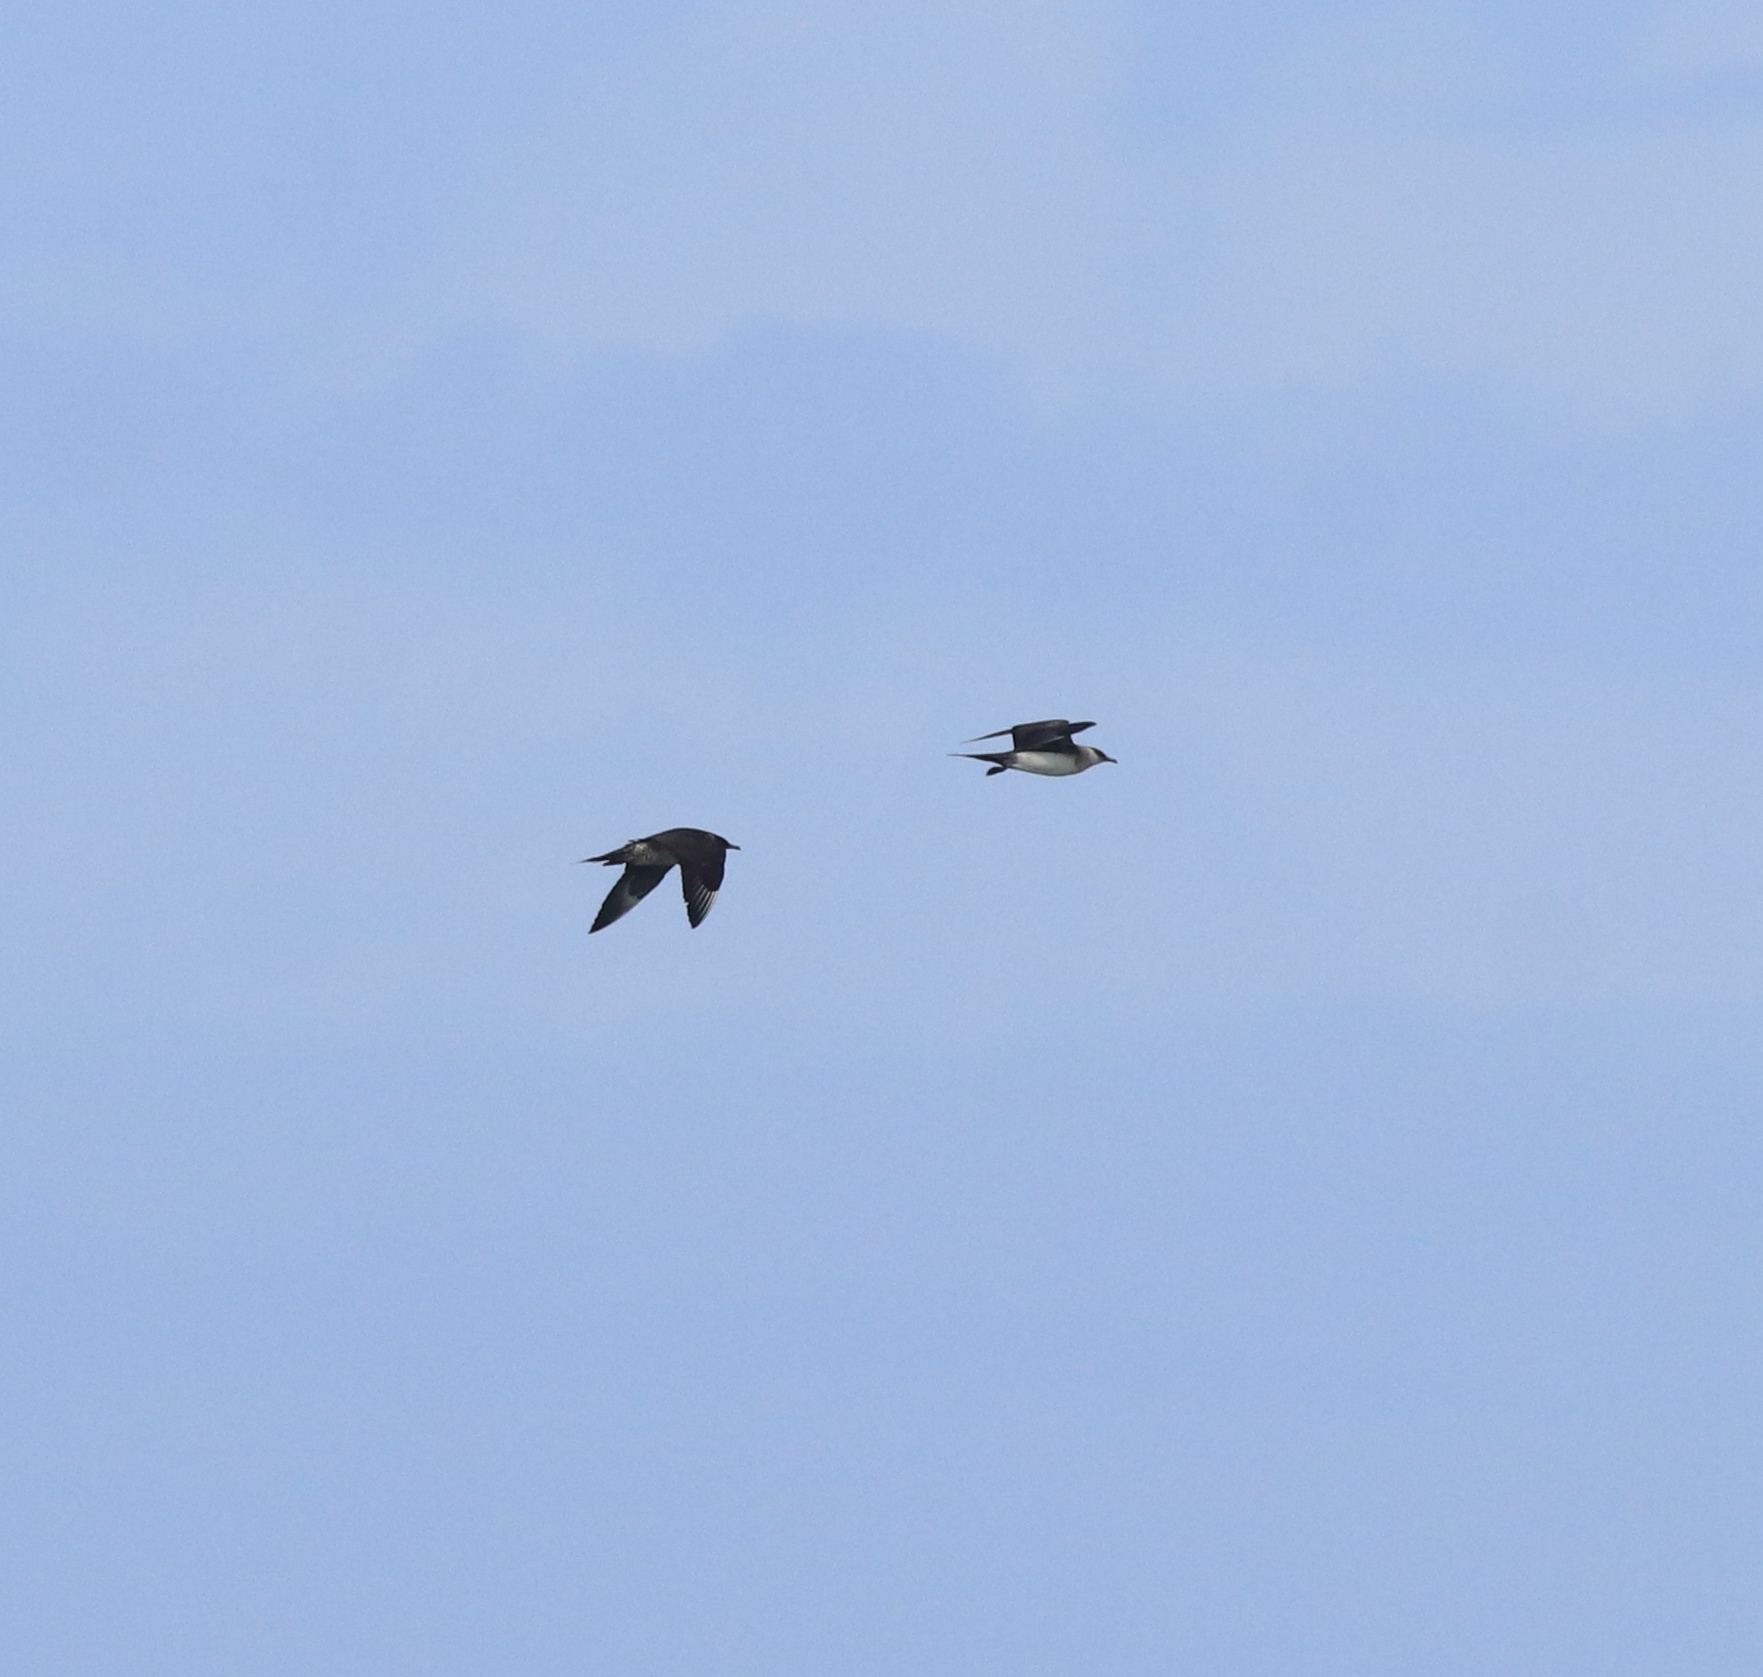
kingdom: Animalia
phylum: Chordata
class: Aves
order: Charadriiformes
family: Stercorariidae
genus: Stercorarius
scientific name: Stercorarius parasiticus
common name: Parasitic jaeger
